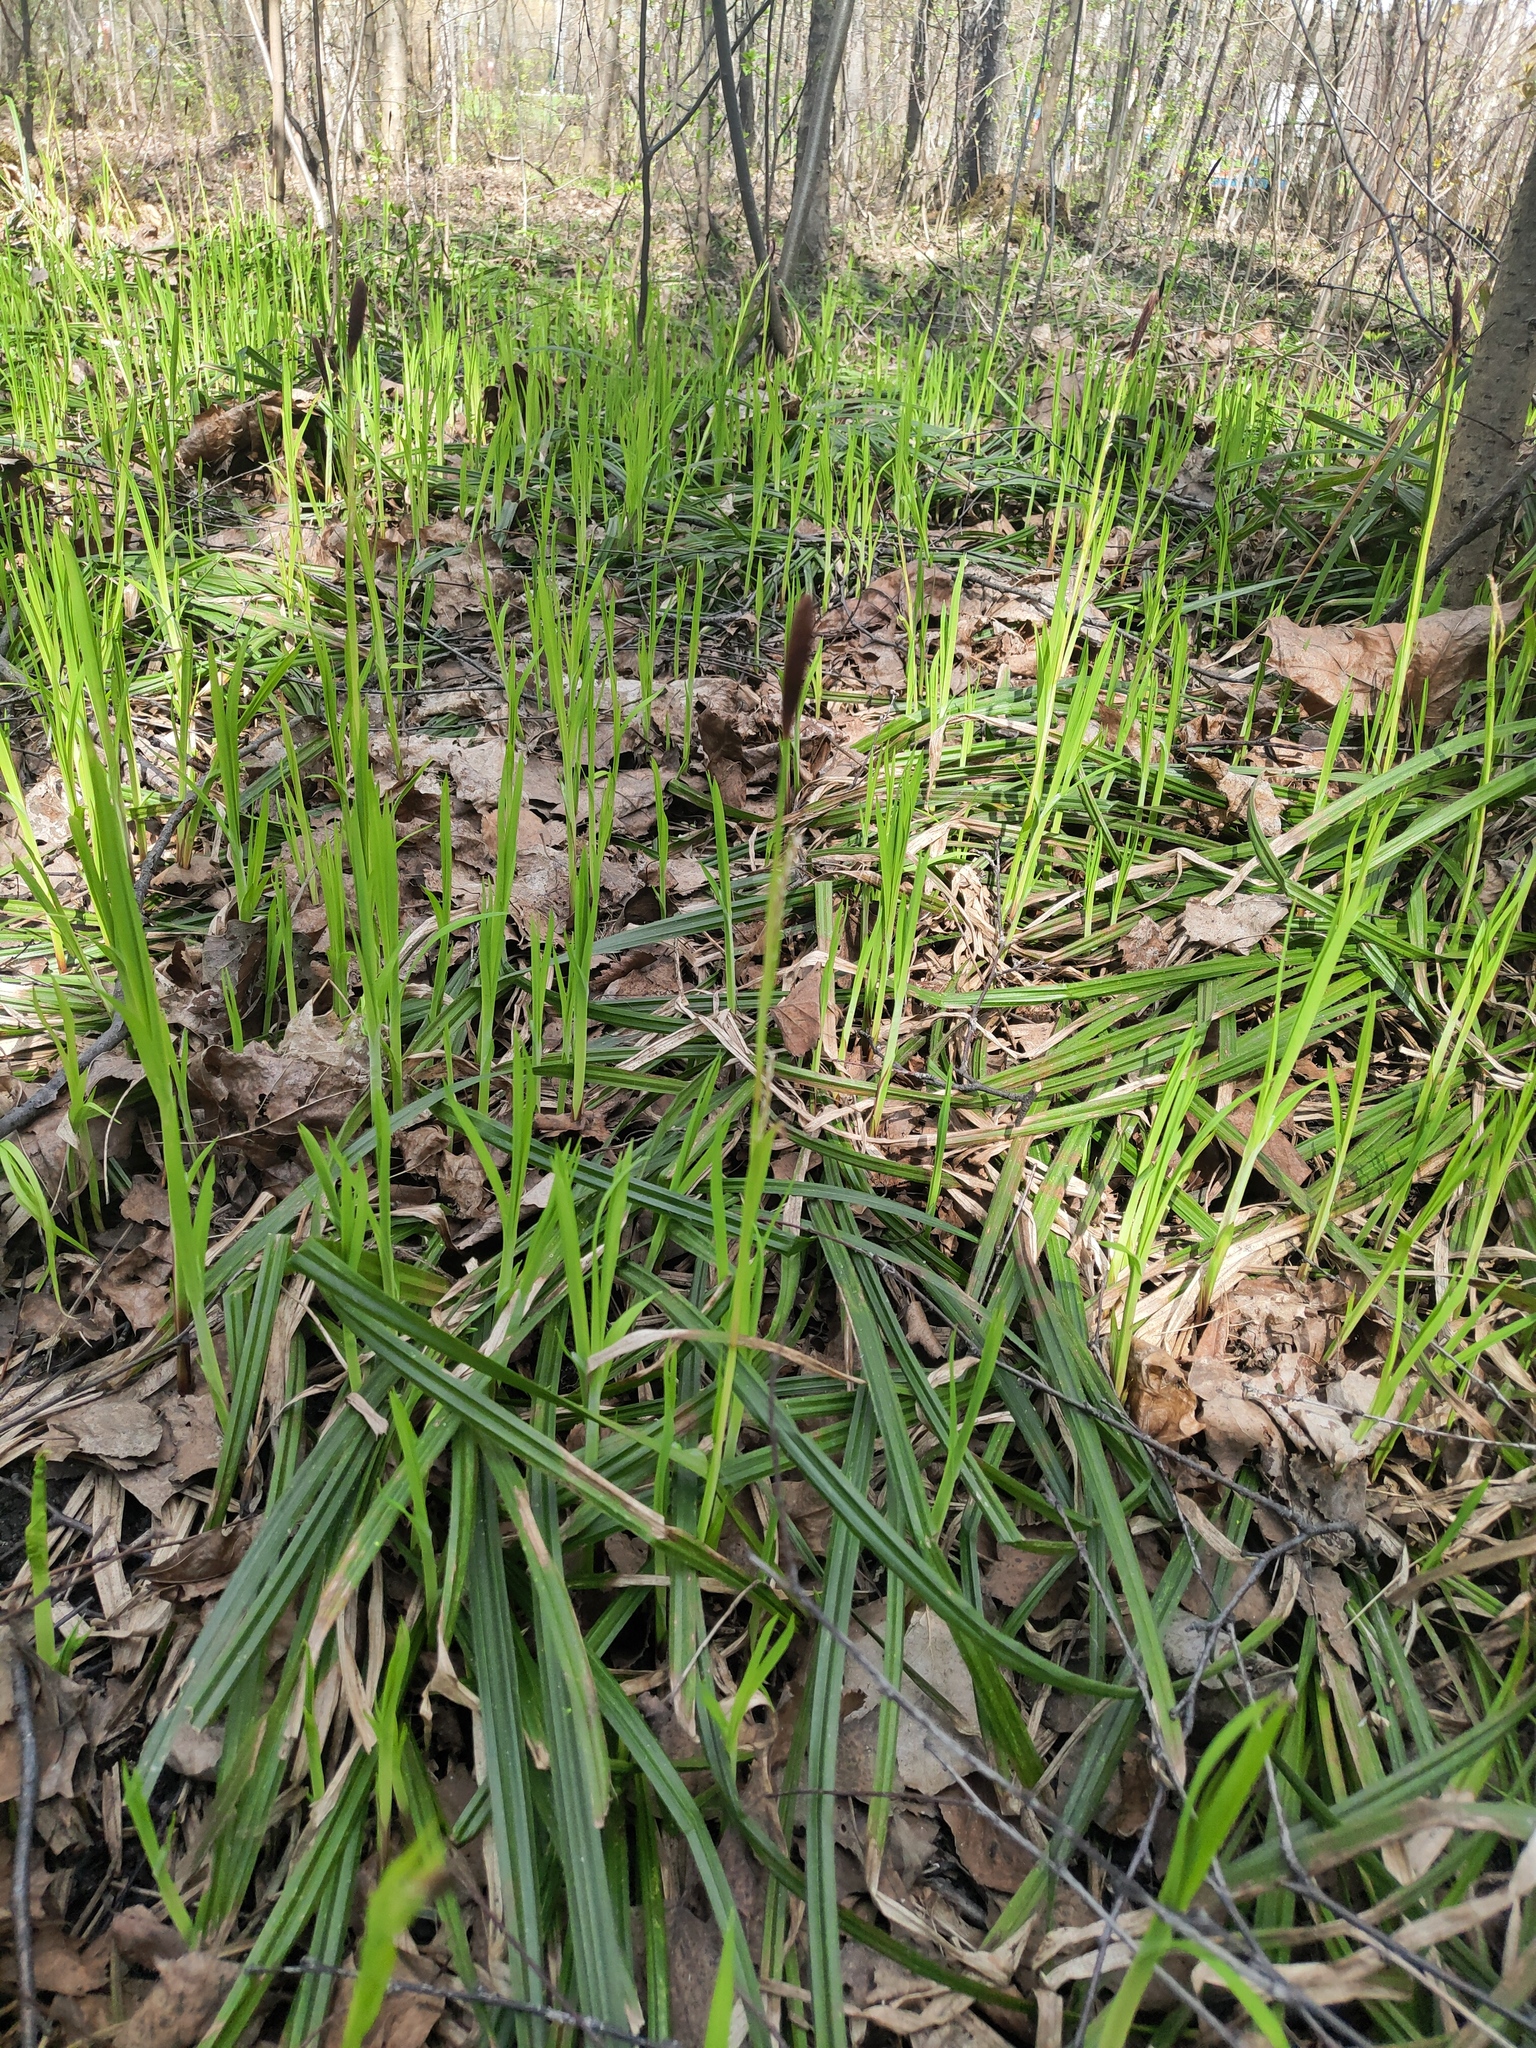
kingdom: Plantae
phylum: Tracheophyta
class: Liliopsida
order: Poales
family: Cyperaceae
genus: Carex
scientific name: Carex pilosa
